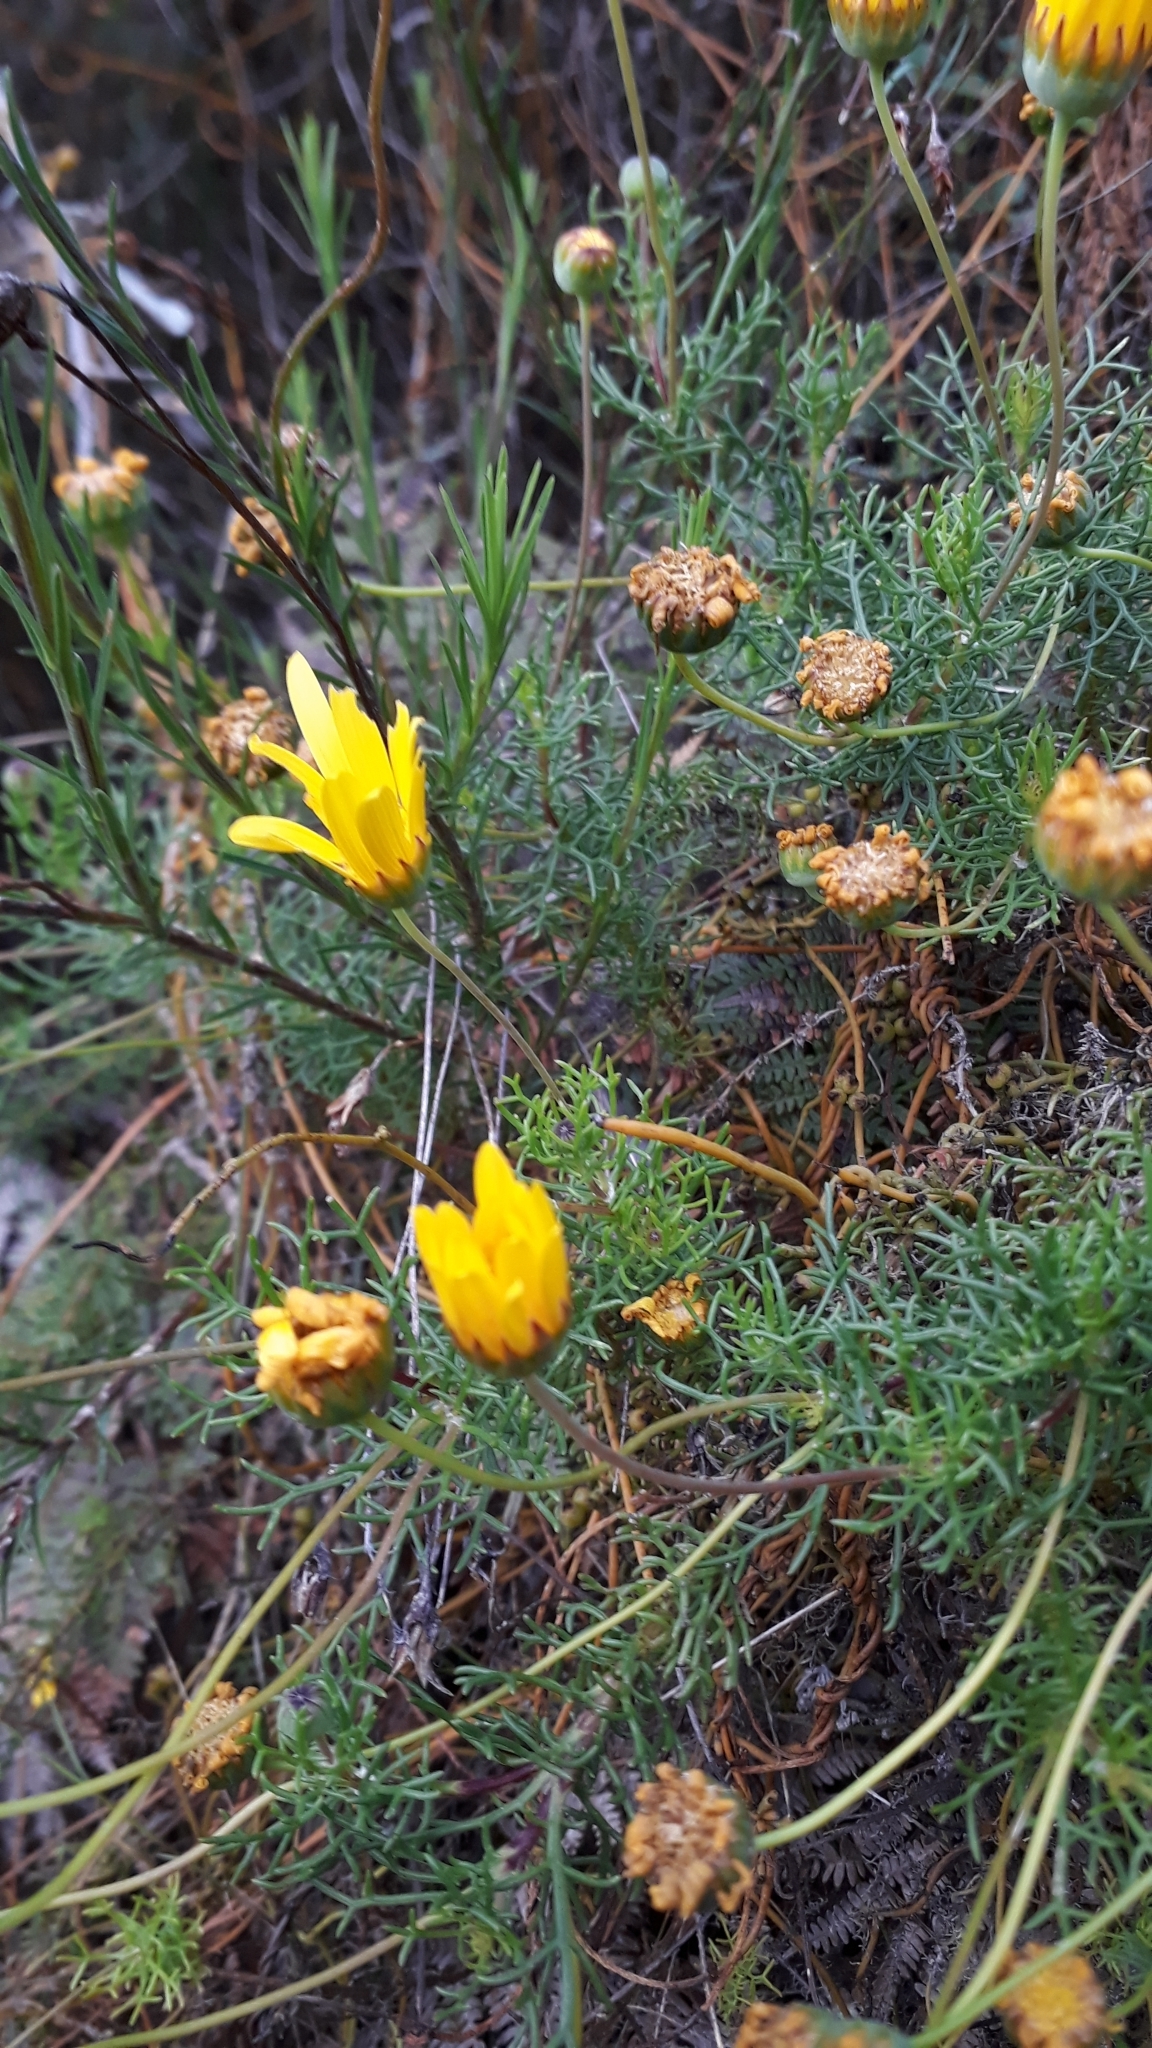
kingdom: Plantae
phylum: Tracheophyta
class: Magnoliopsida
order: Asterales
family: Asteraceae
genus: Euryops
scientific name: Euryops abrotanifolius
